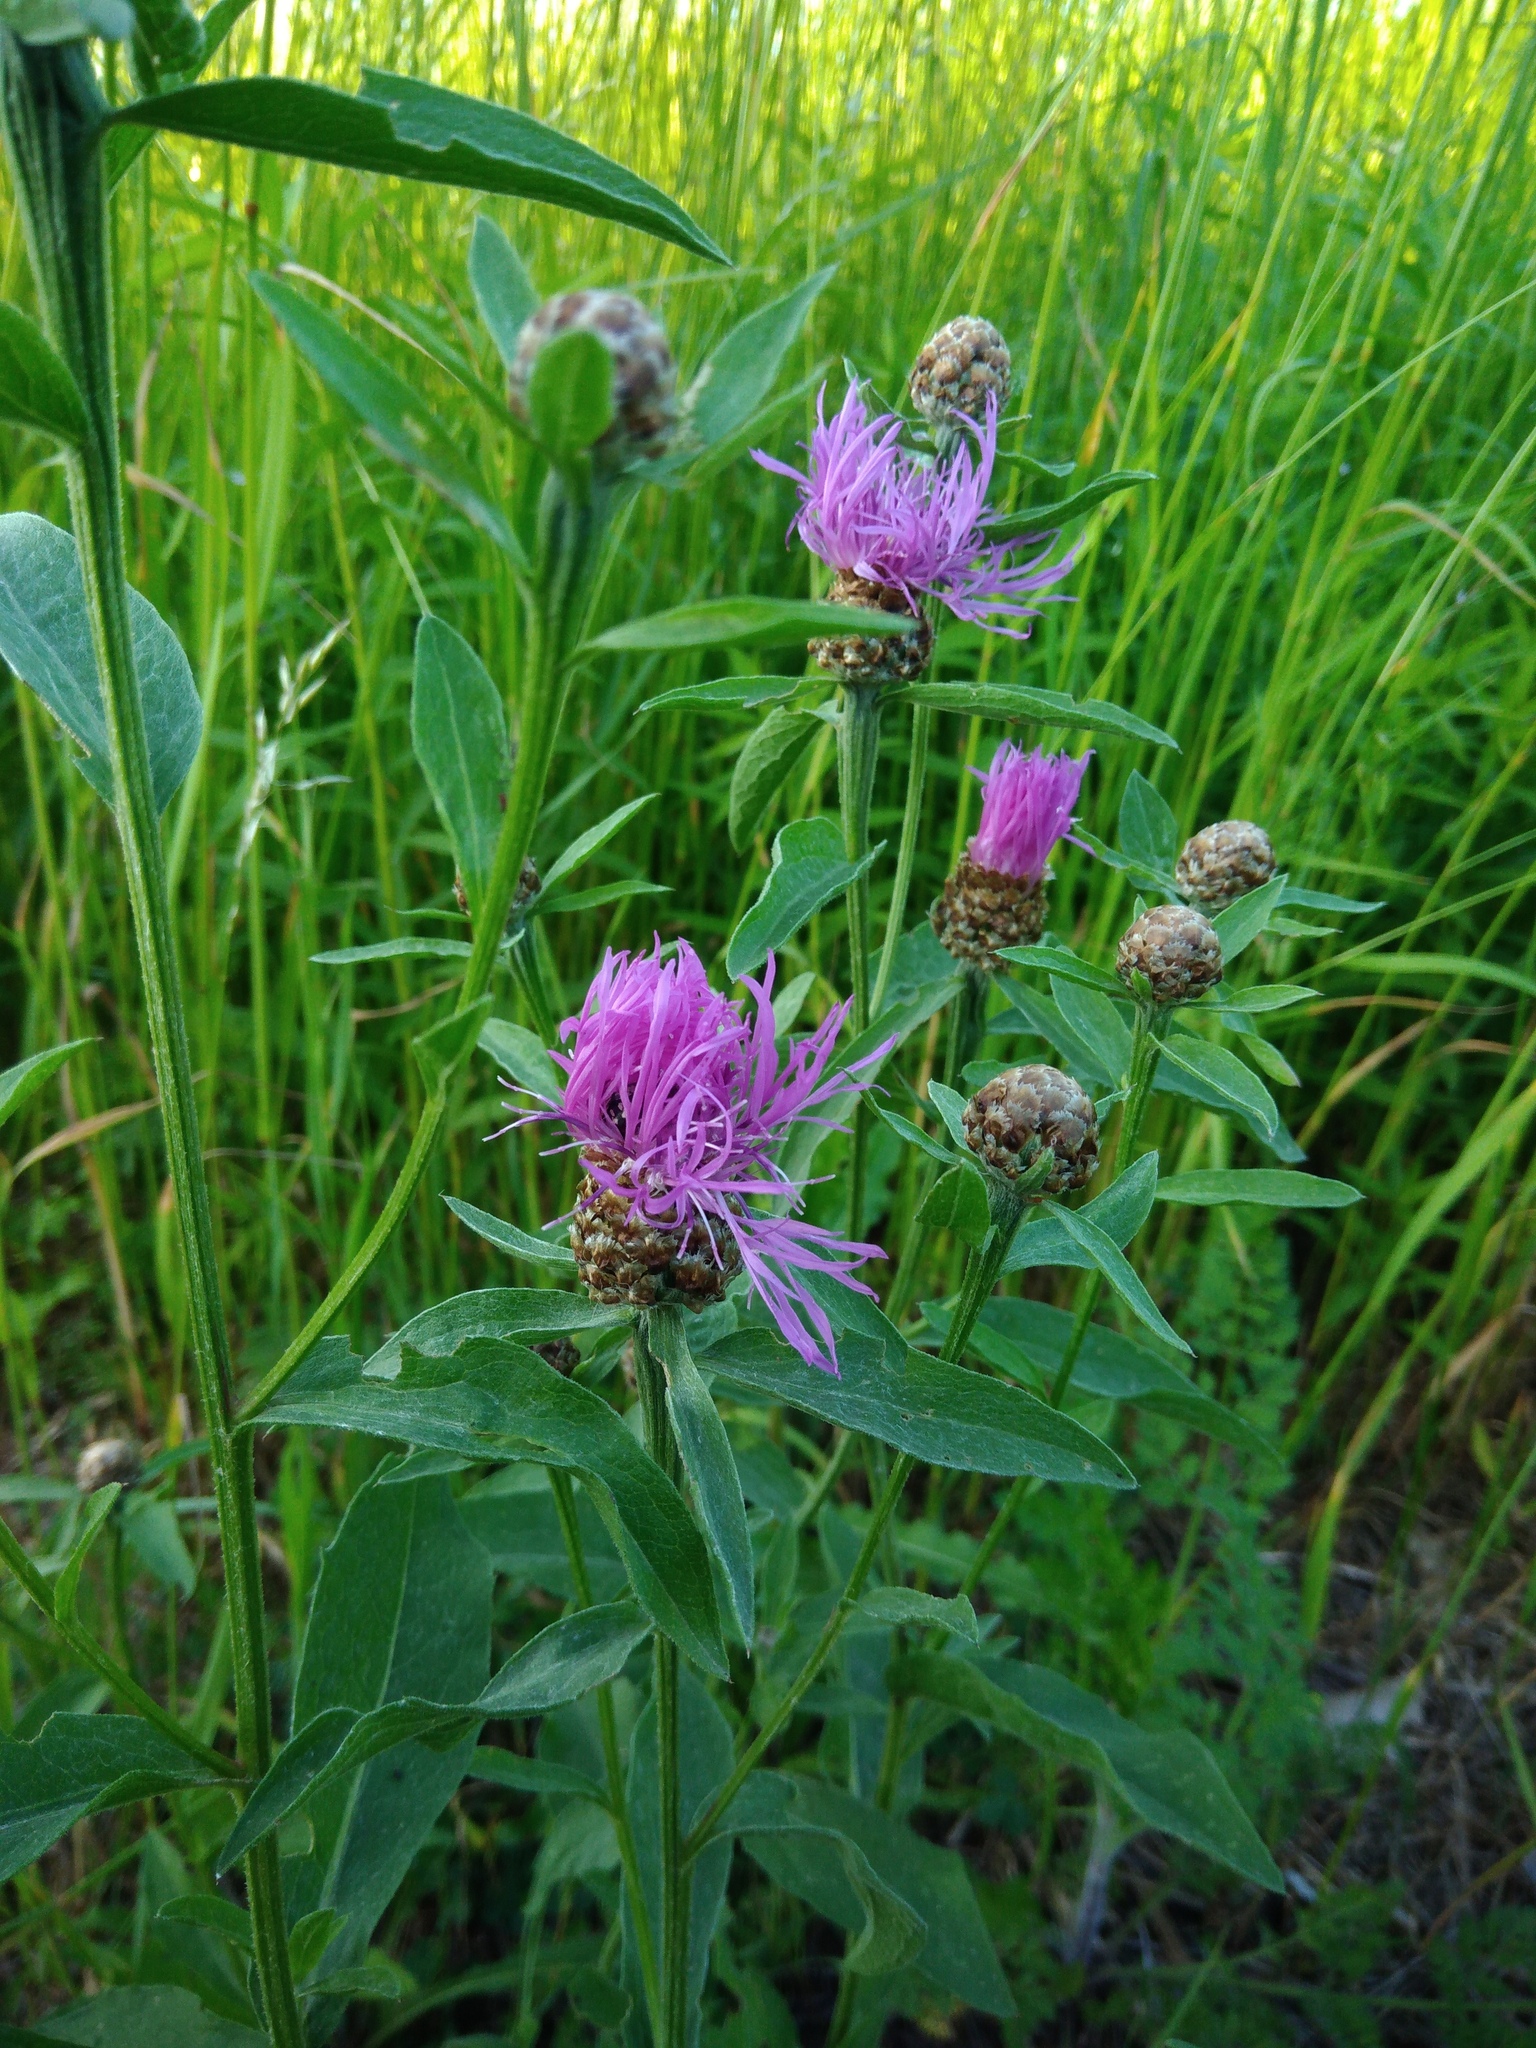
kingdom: Plantae
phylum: Tracheophyta
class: Magnoliopsida
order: Asterales
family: Asteraceae
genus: Centaurea
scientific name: Centaurea jacea
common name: Brown knapweed
